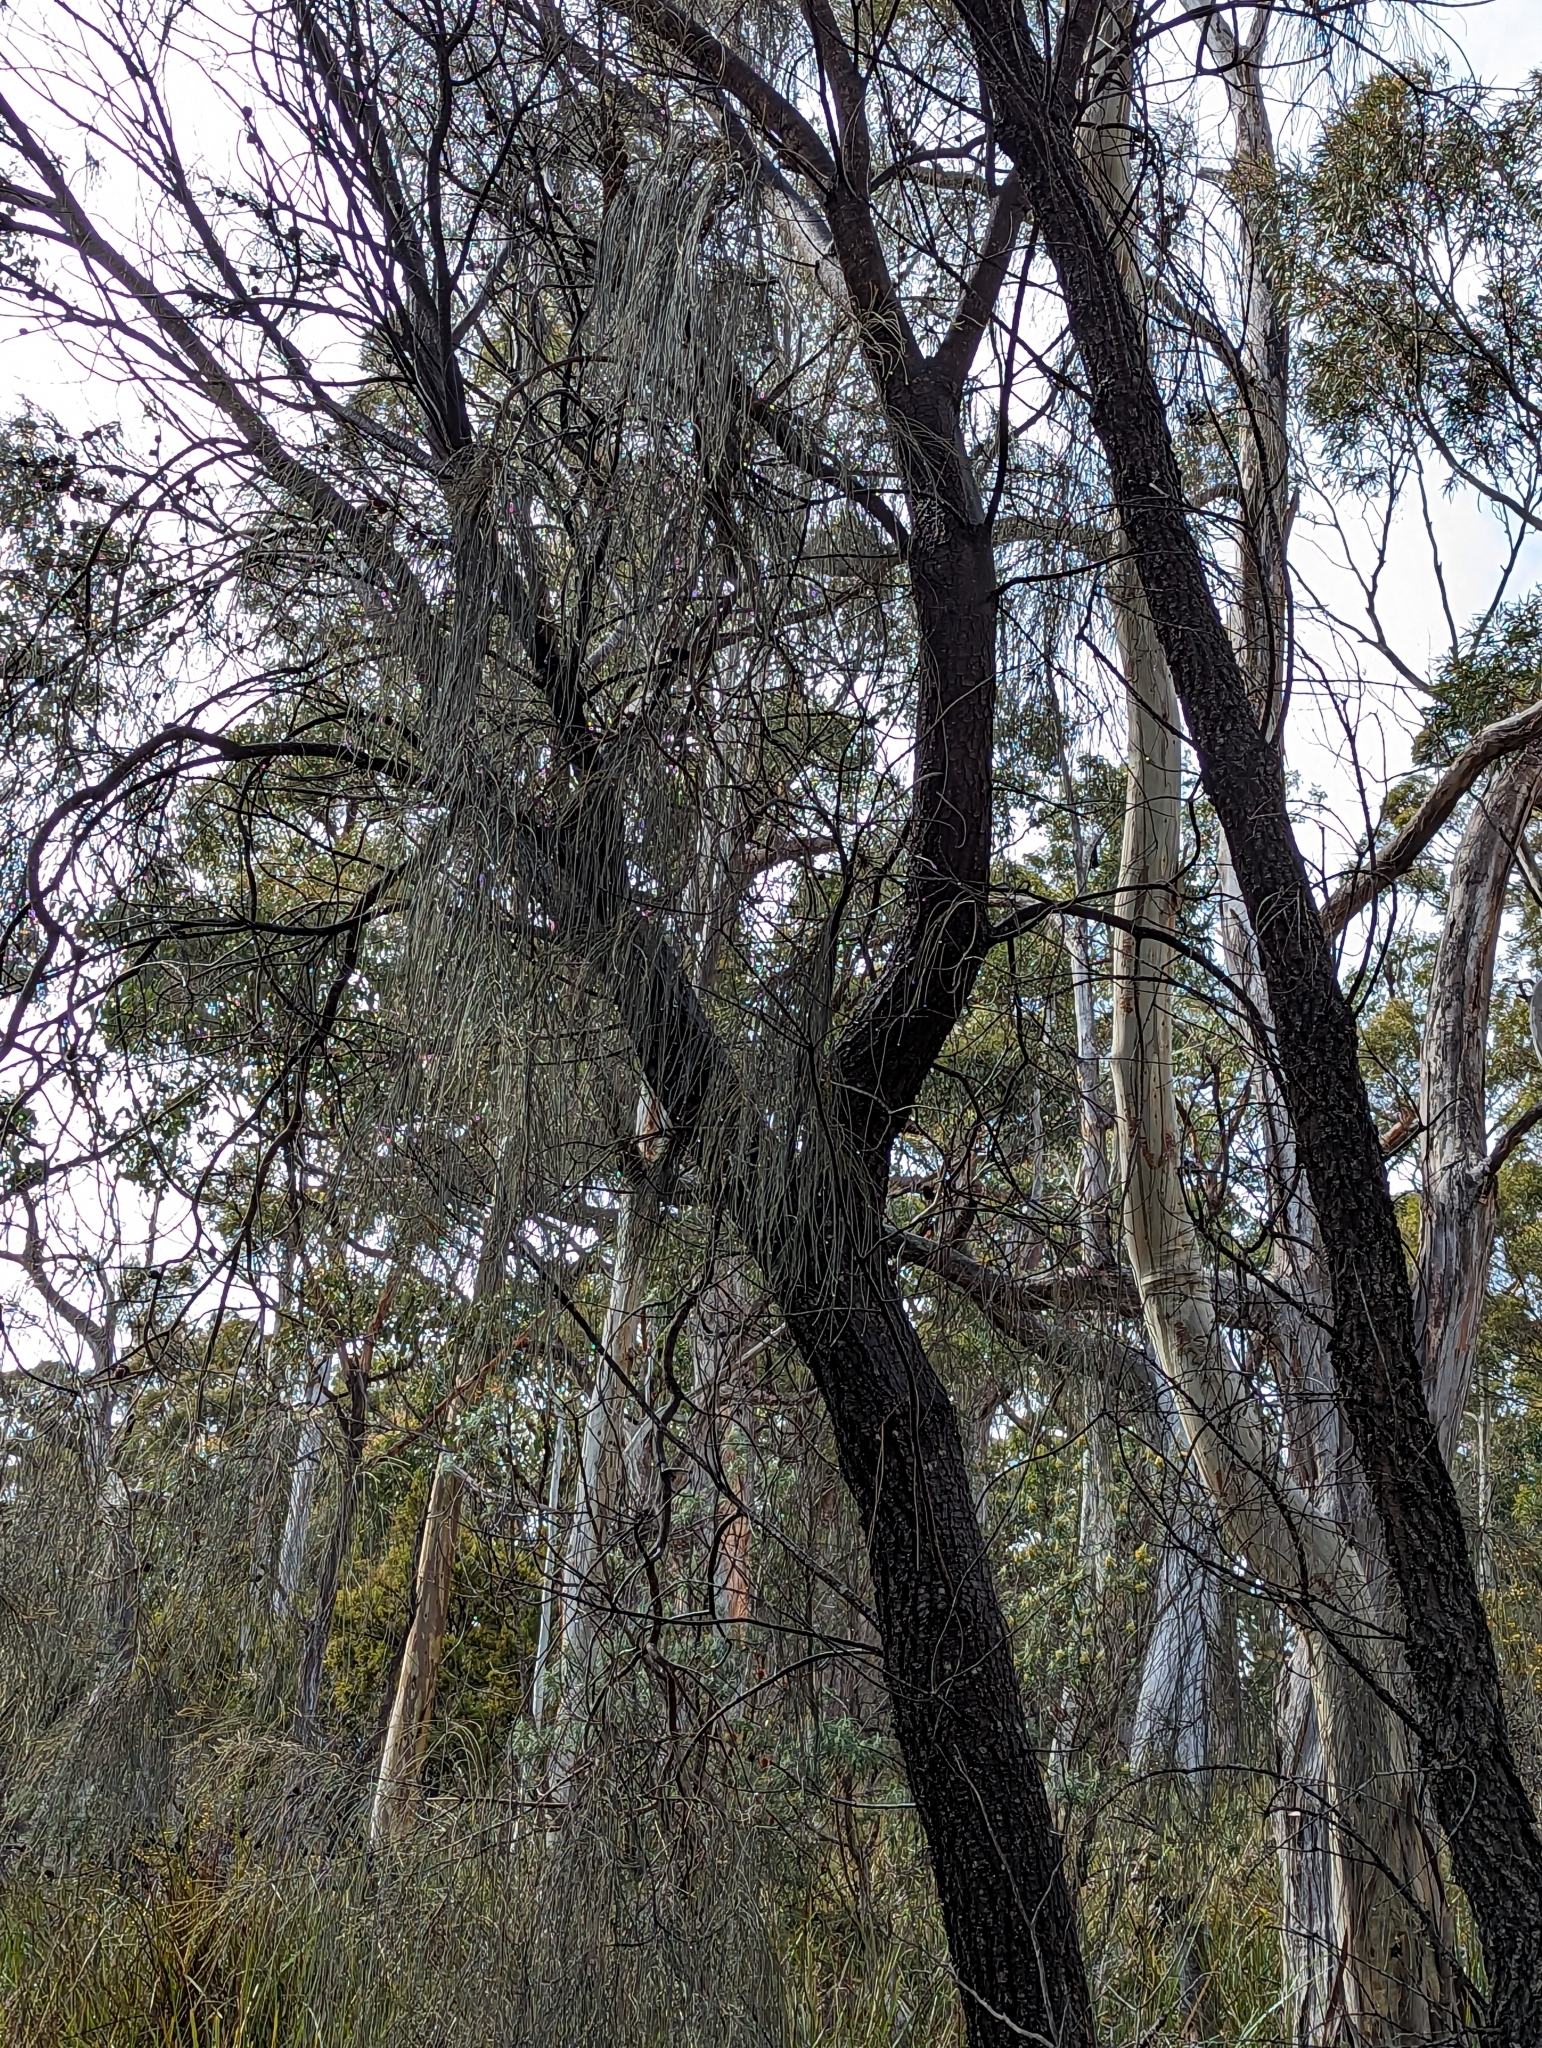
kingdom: Plantae
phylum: Tracheophyta
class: Magnoliopsida
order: Fagales
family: Casuarinaceae
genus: Allocasuarina
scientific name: Allocasuarina verticillata
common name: Drooping she-oak
